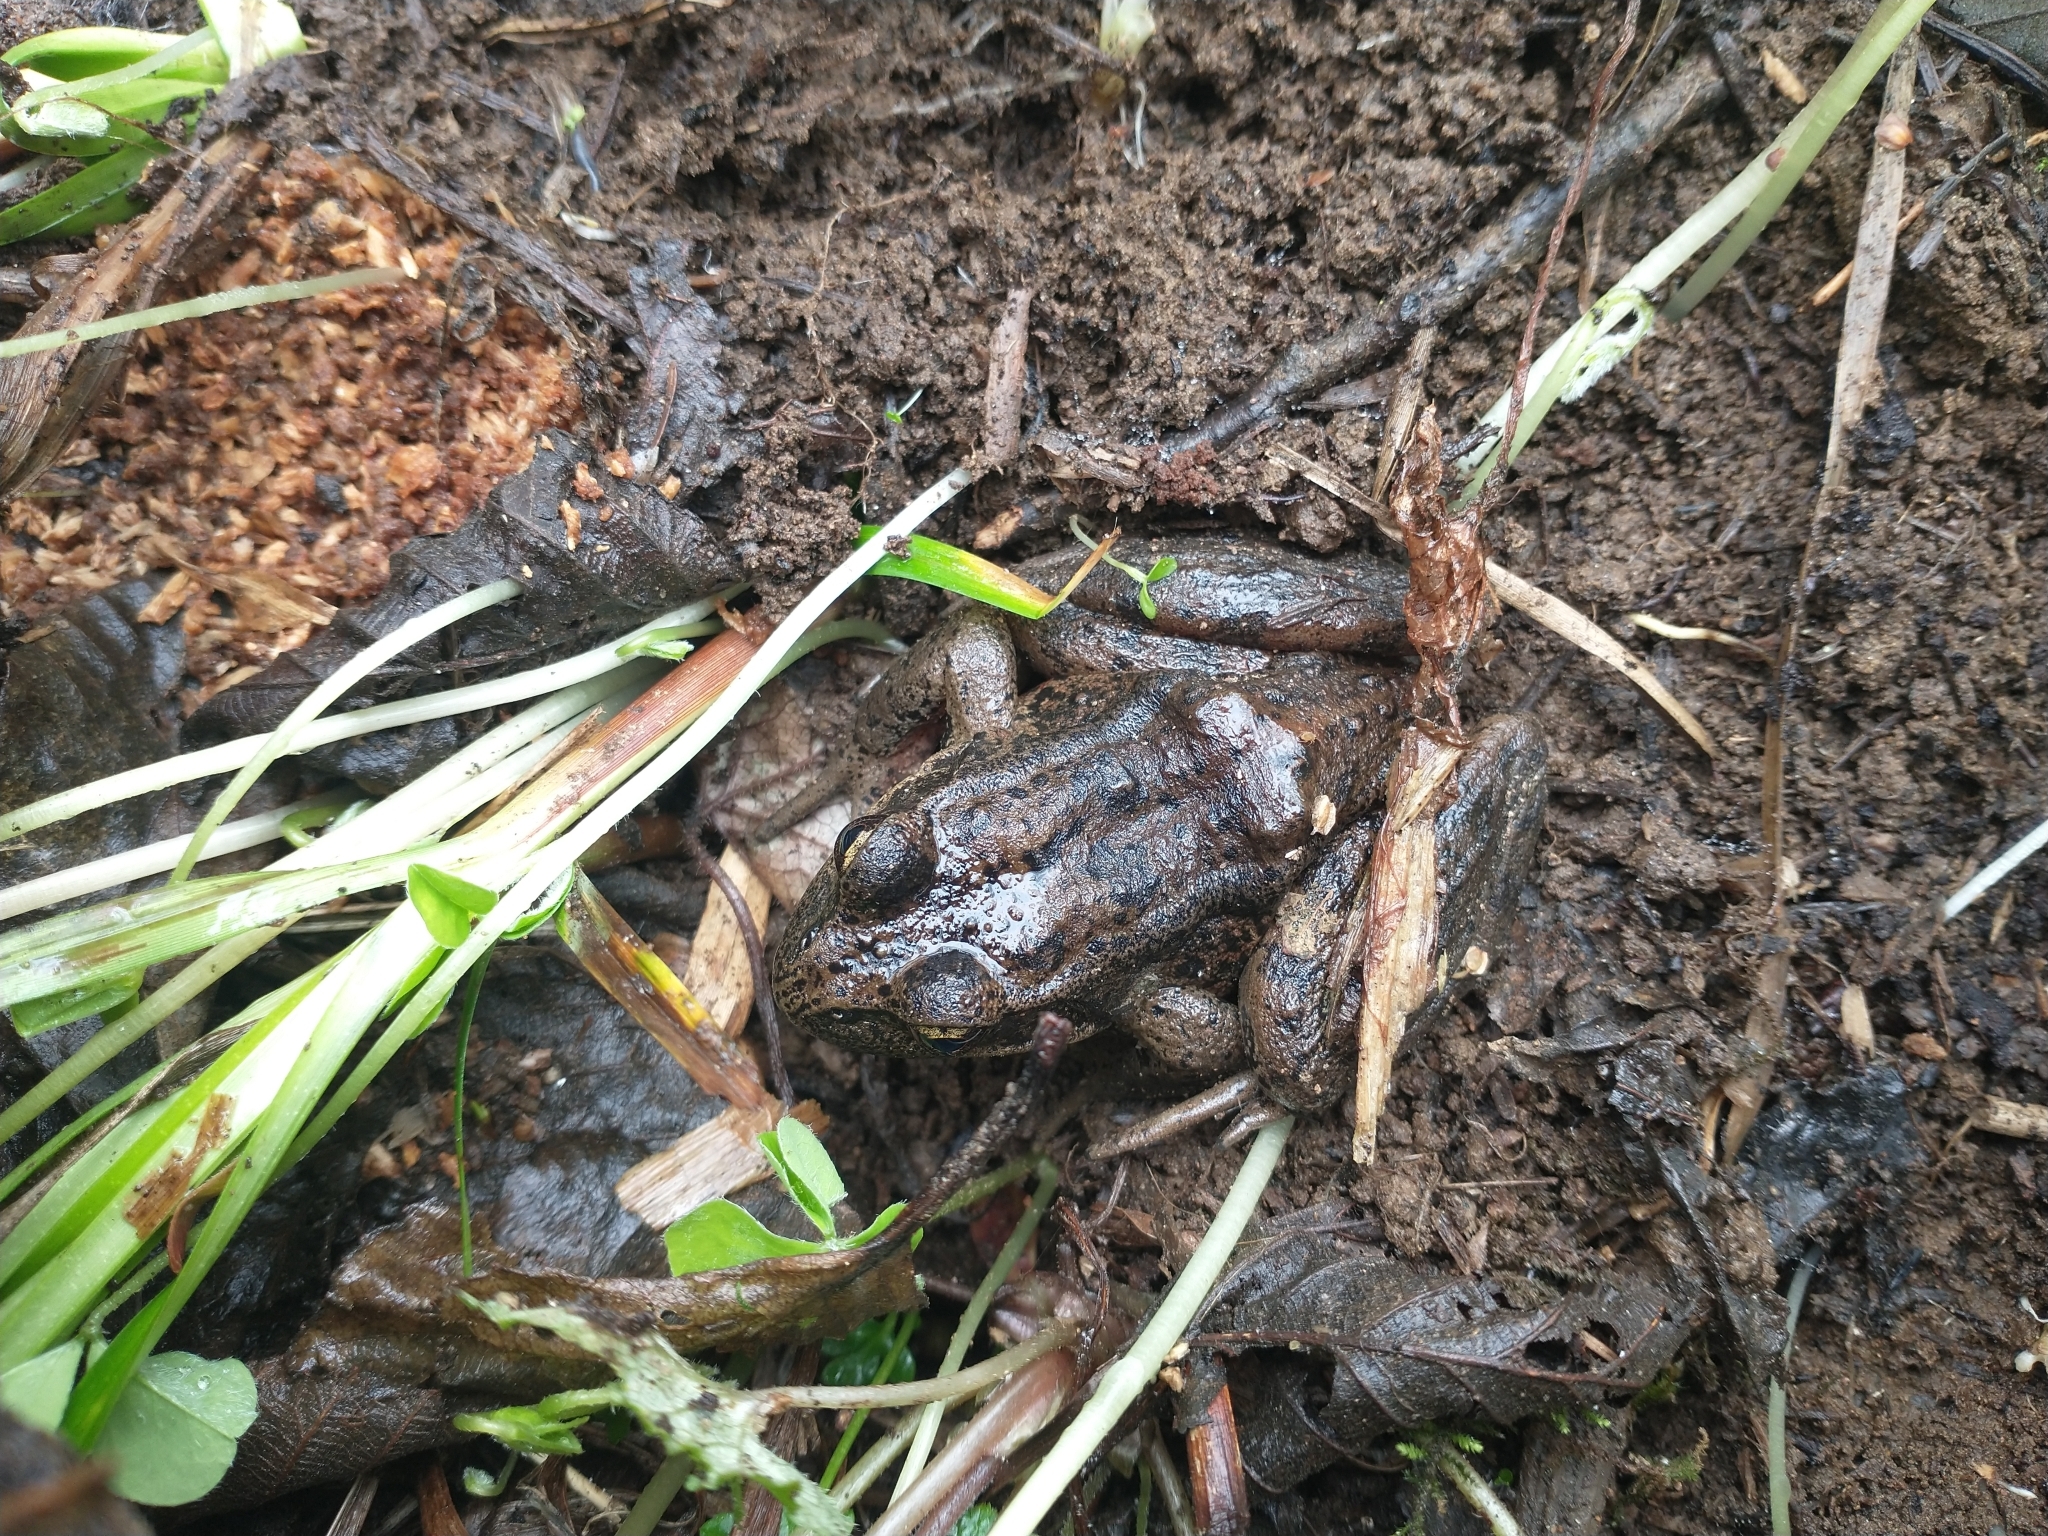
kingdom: Animalia
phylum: Chordata
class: Amphibia
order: Anura
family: Ranidae
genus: Rana
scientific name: Rana aurora
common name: Red-legged frog
